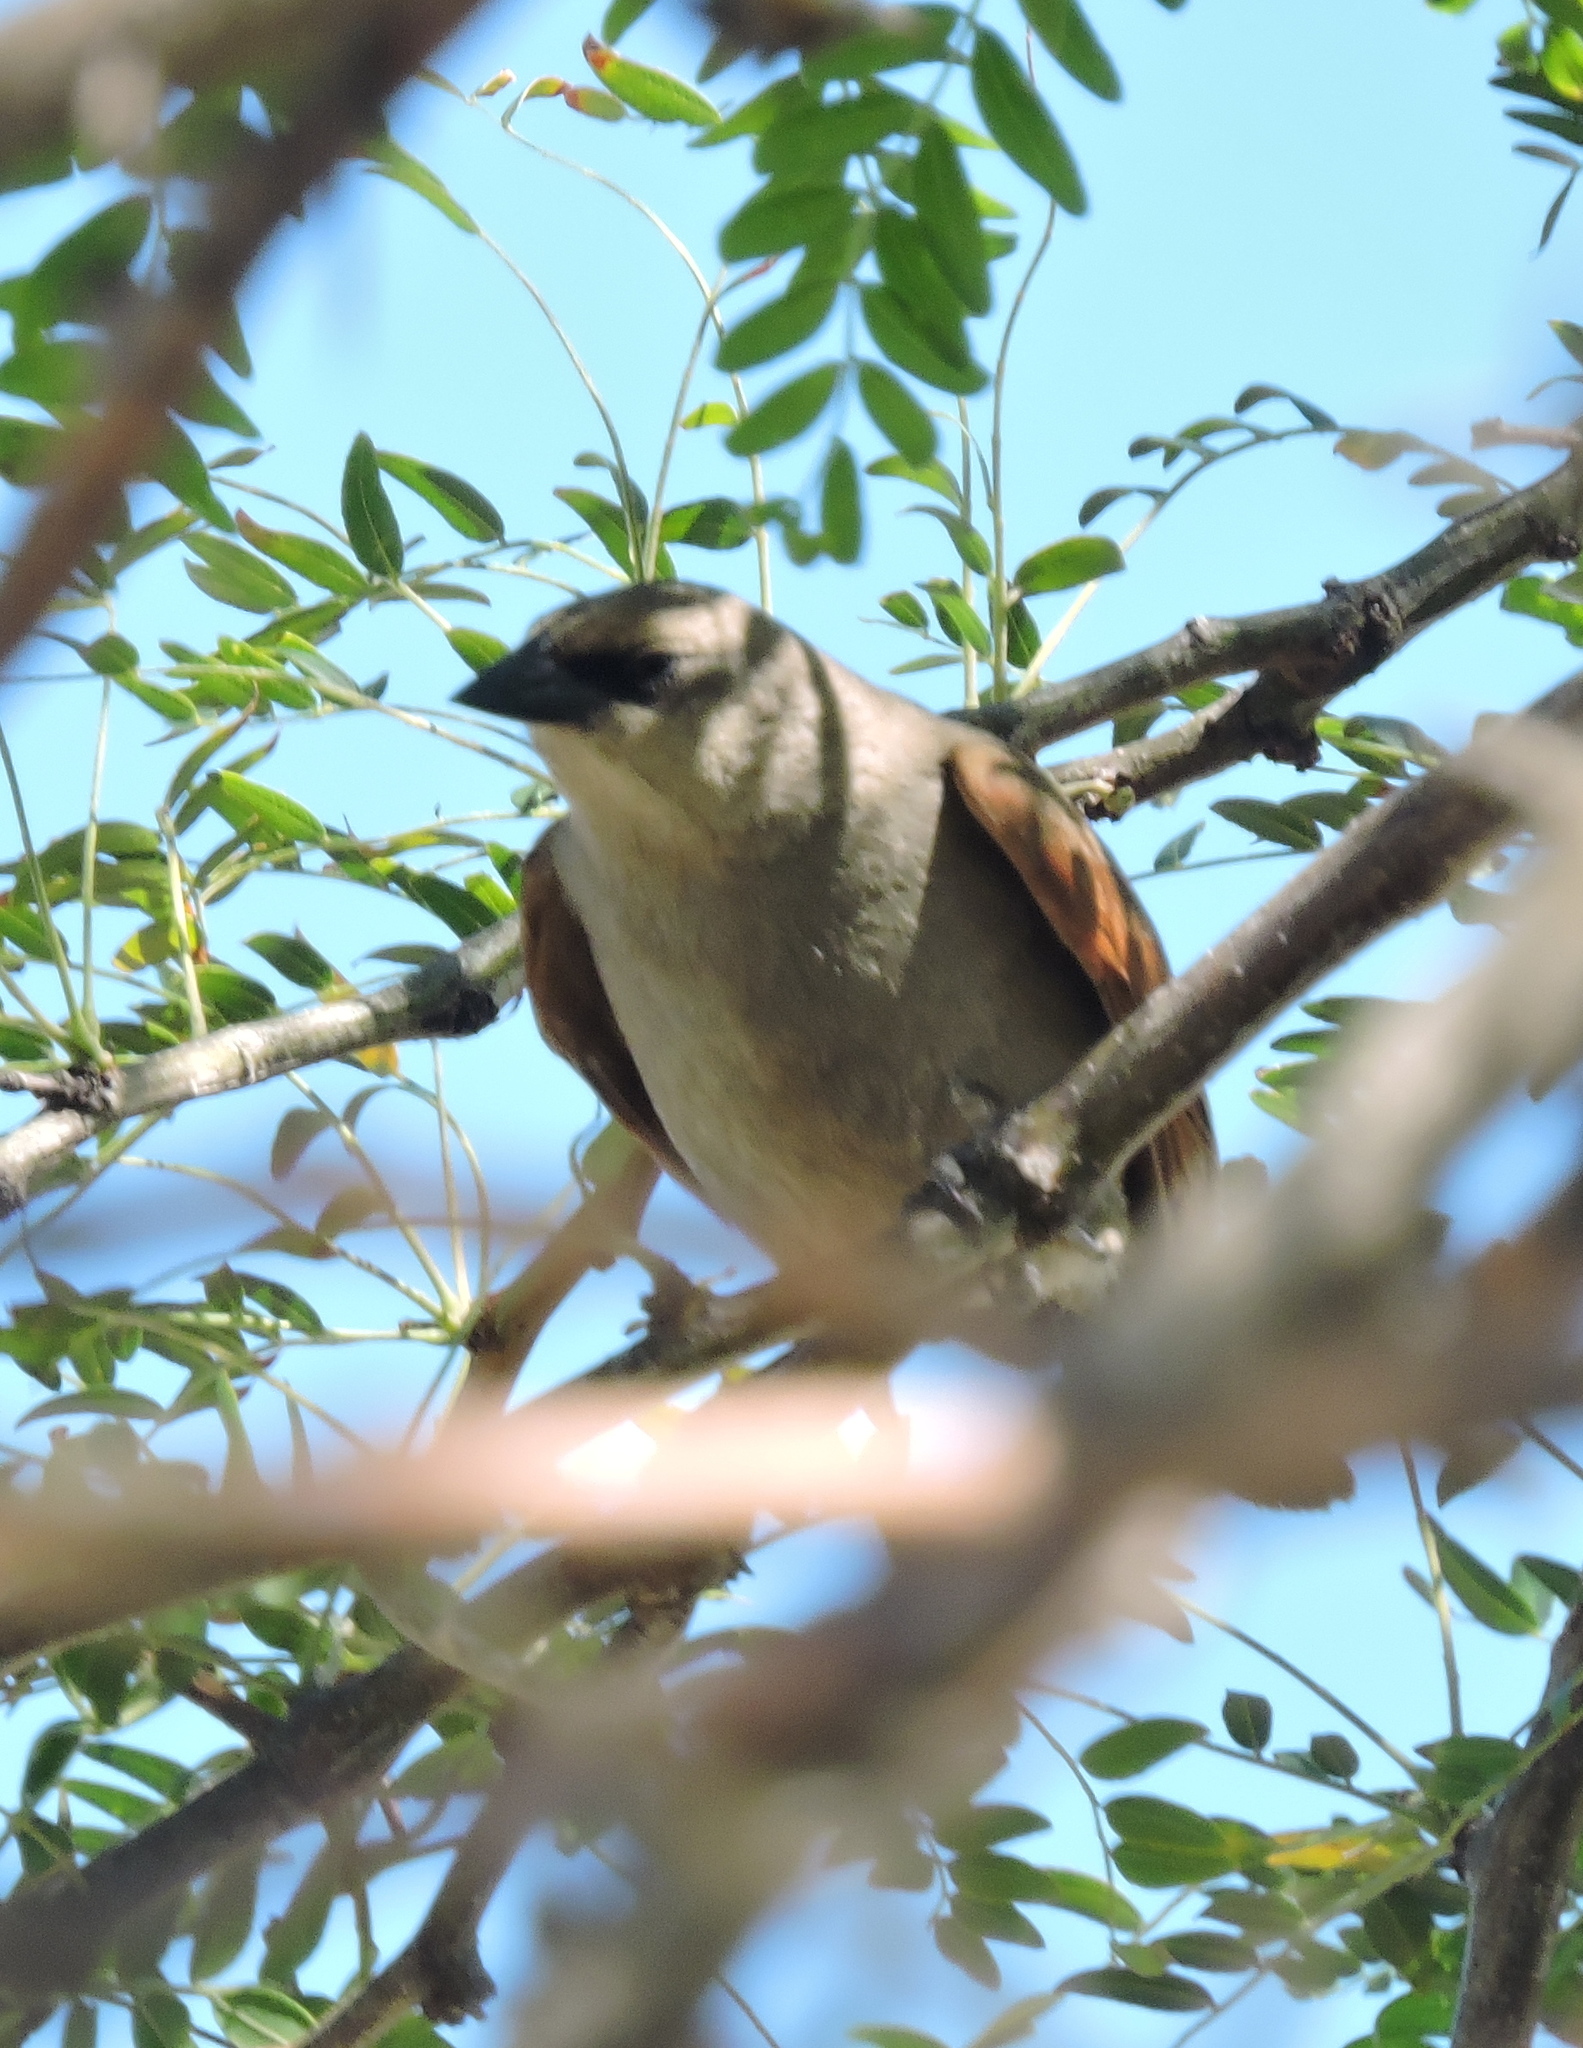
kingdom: Animalia
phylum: Chordata
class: Aves
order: Passeriformes
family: Icteridae
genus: Agelaioides
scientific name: Agelaioides badius
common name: Baywing
